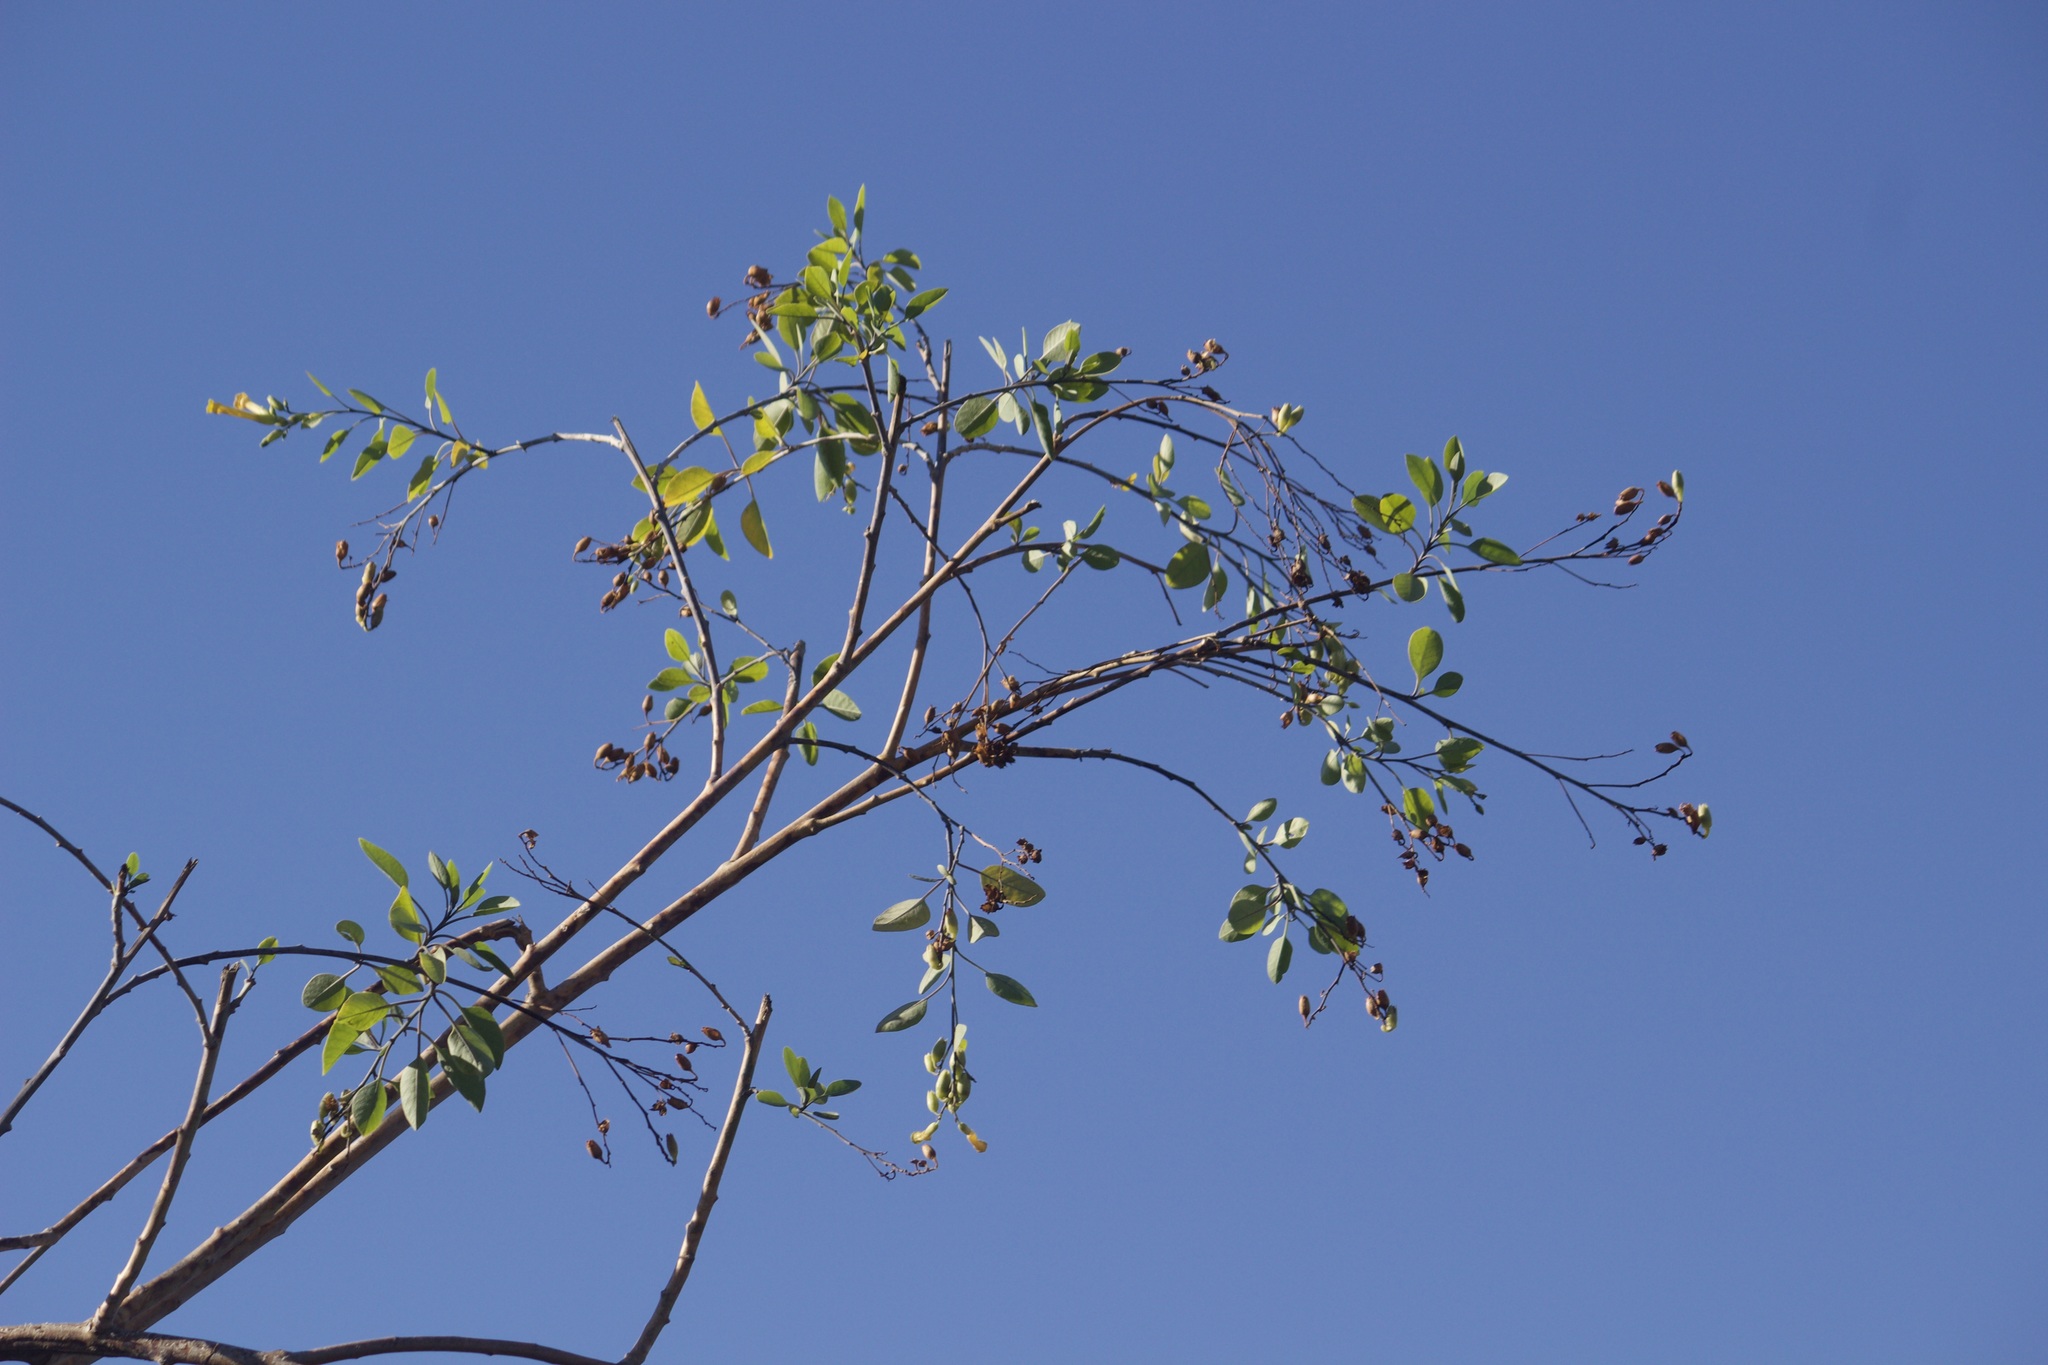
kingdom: Plantae
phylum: Tracheophyta
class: Magnoliopsida
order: Solanales
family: Solanaceae
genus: Nicotiana
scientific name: Nicotiana glauca
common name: Tree tobacco
